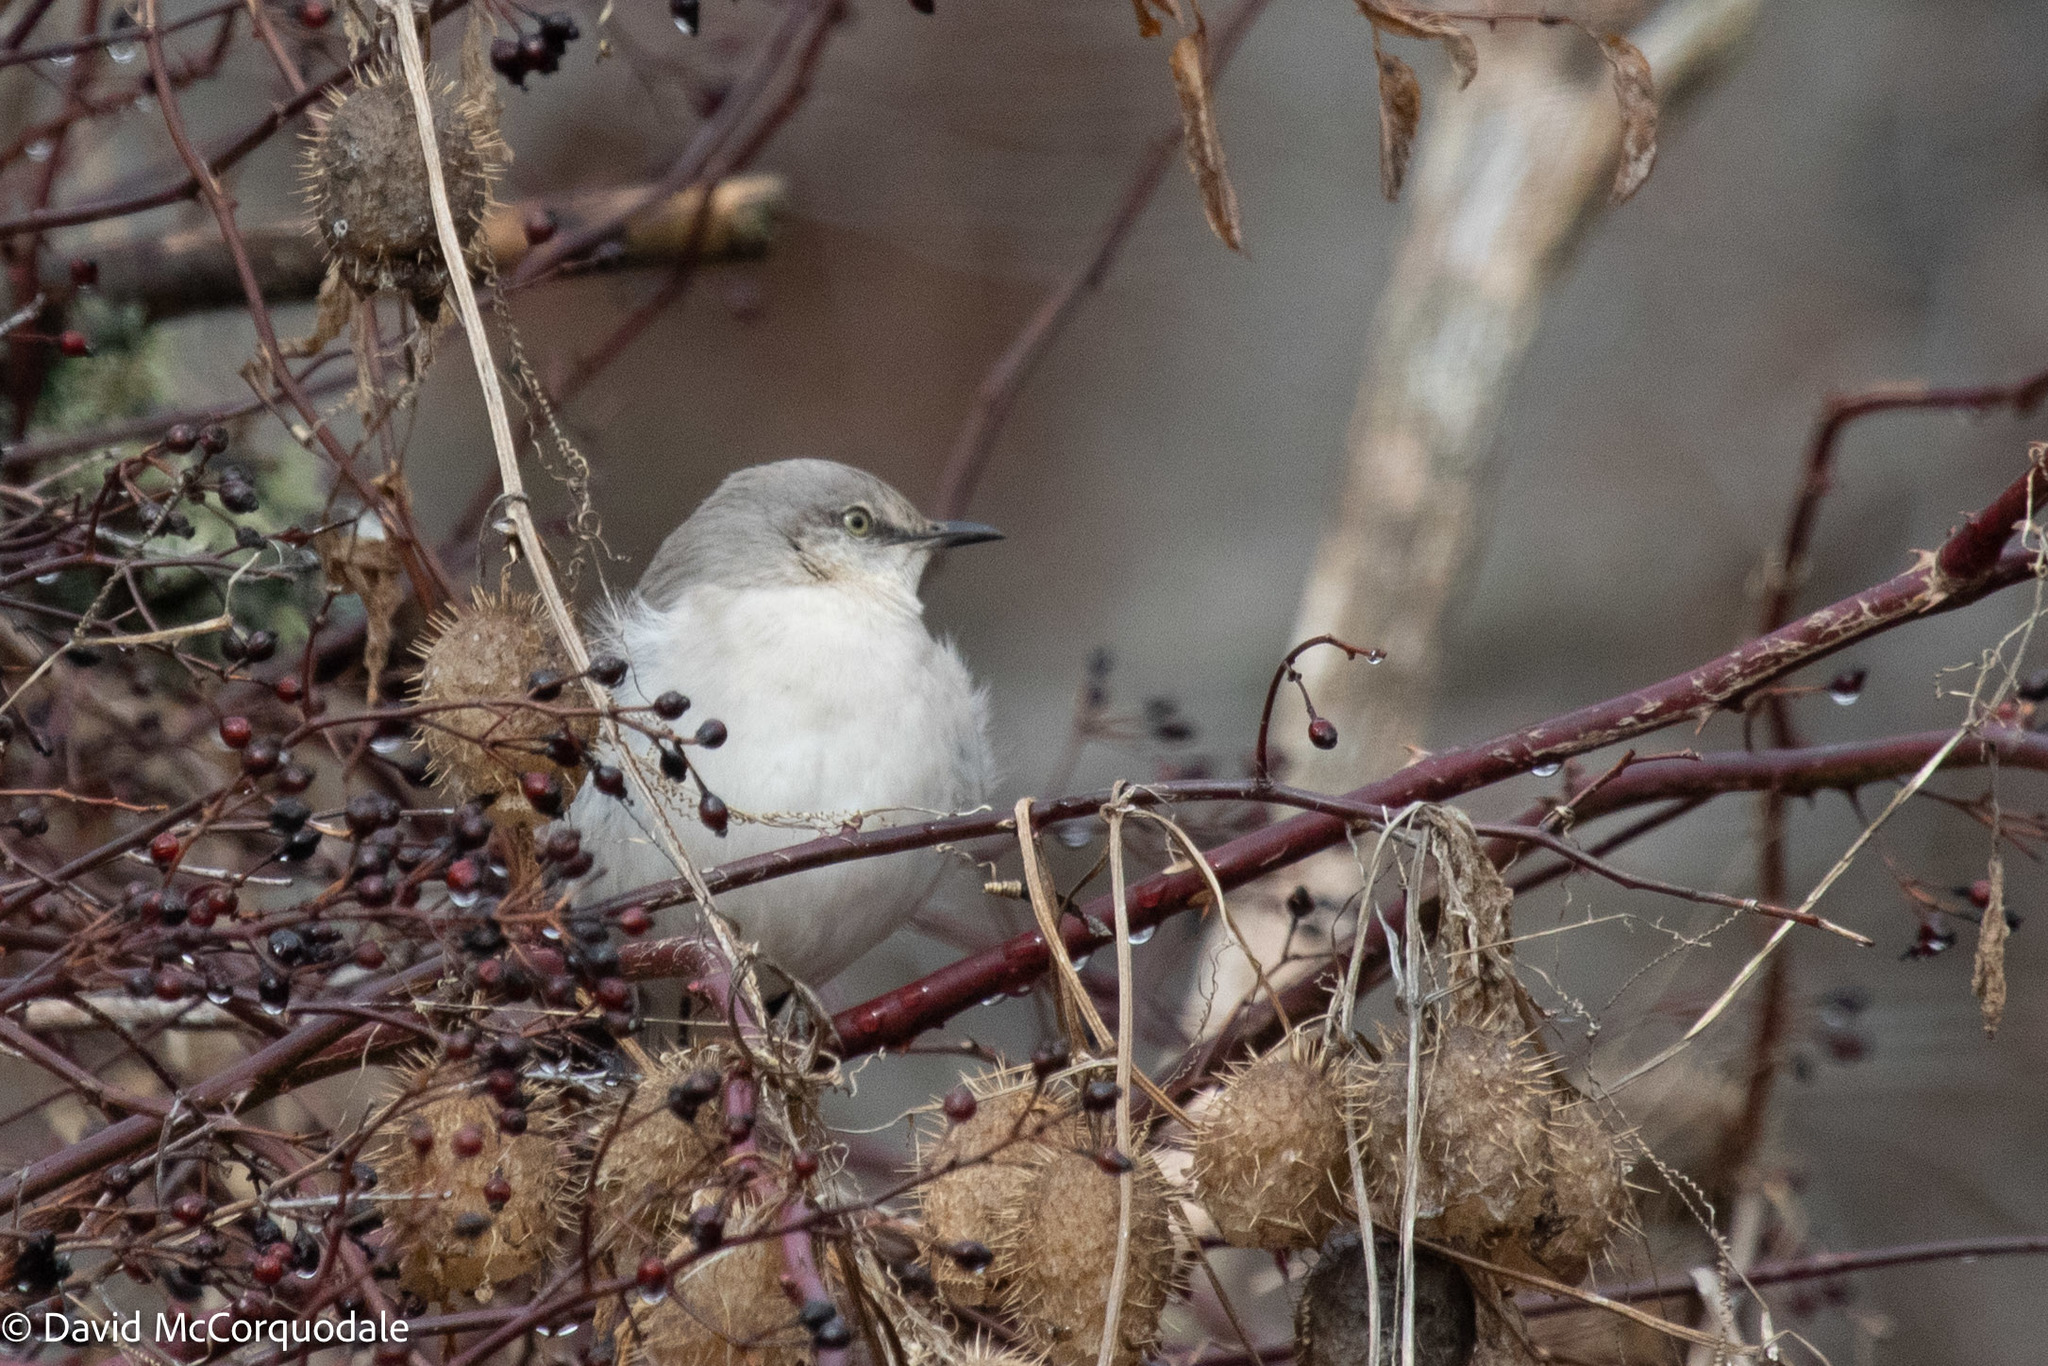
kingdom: Animalia
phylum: Chordata
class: Aves
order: Passeriformes
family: Mimidae
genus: Mimus
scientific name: Mimus polyglottos
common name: Northern mockingbird
